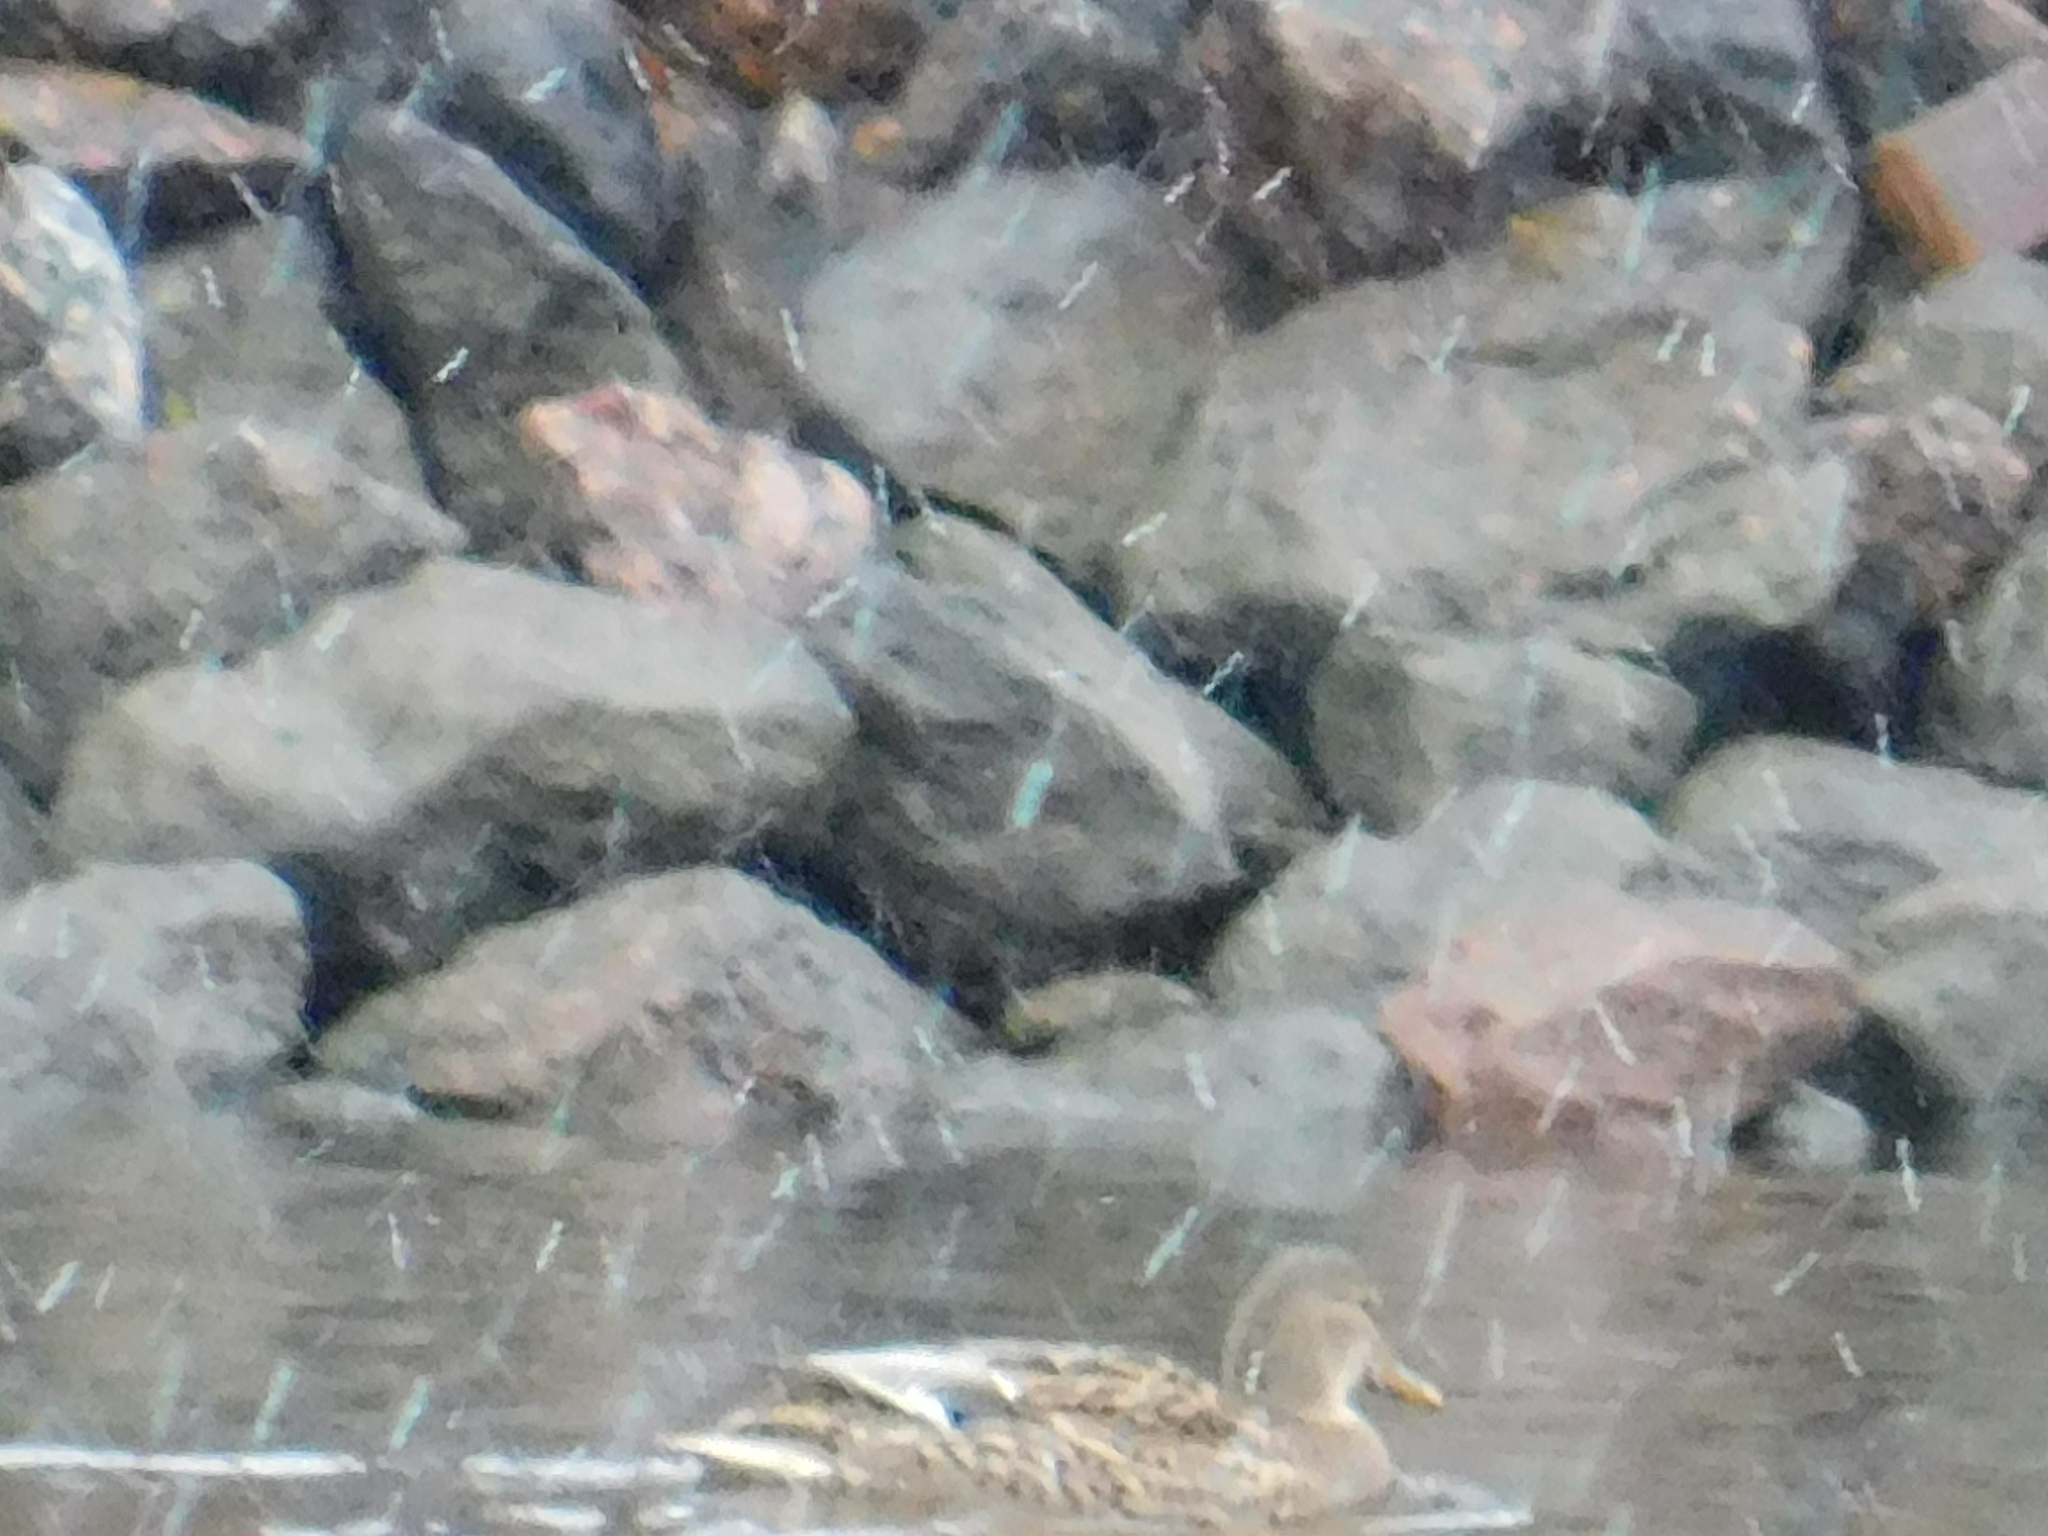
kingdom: Animalia
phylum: Chordata
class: Aves
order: Anseriformes
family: Anatidae
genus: Anas
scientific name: Anas platyrhynchos
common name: Mallard
